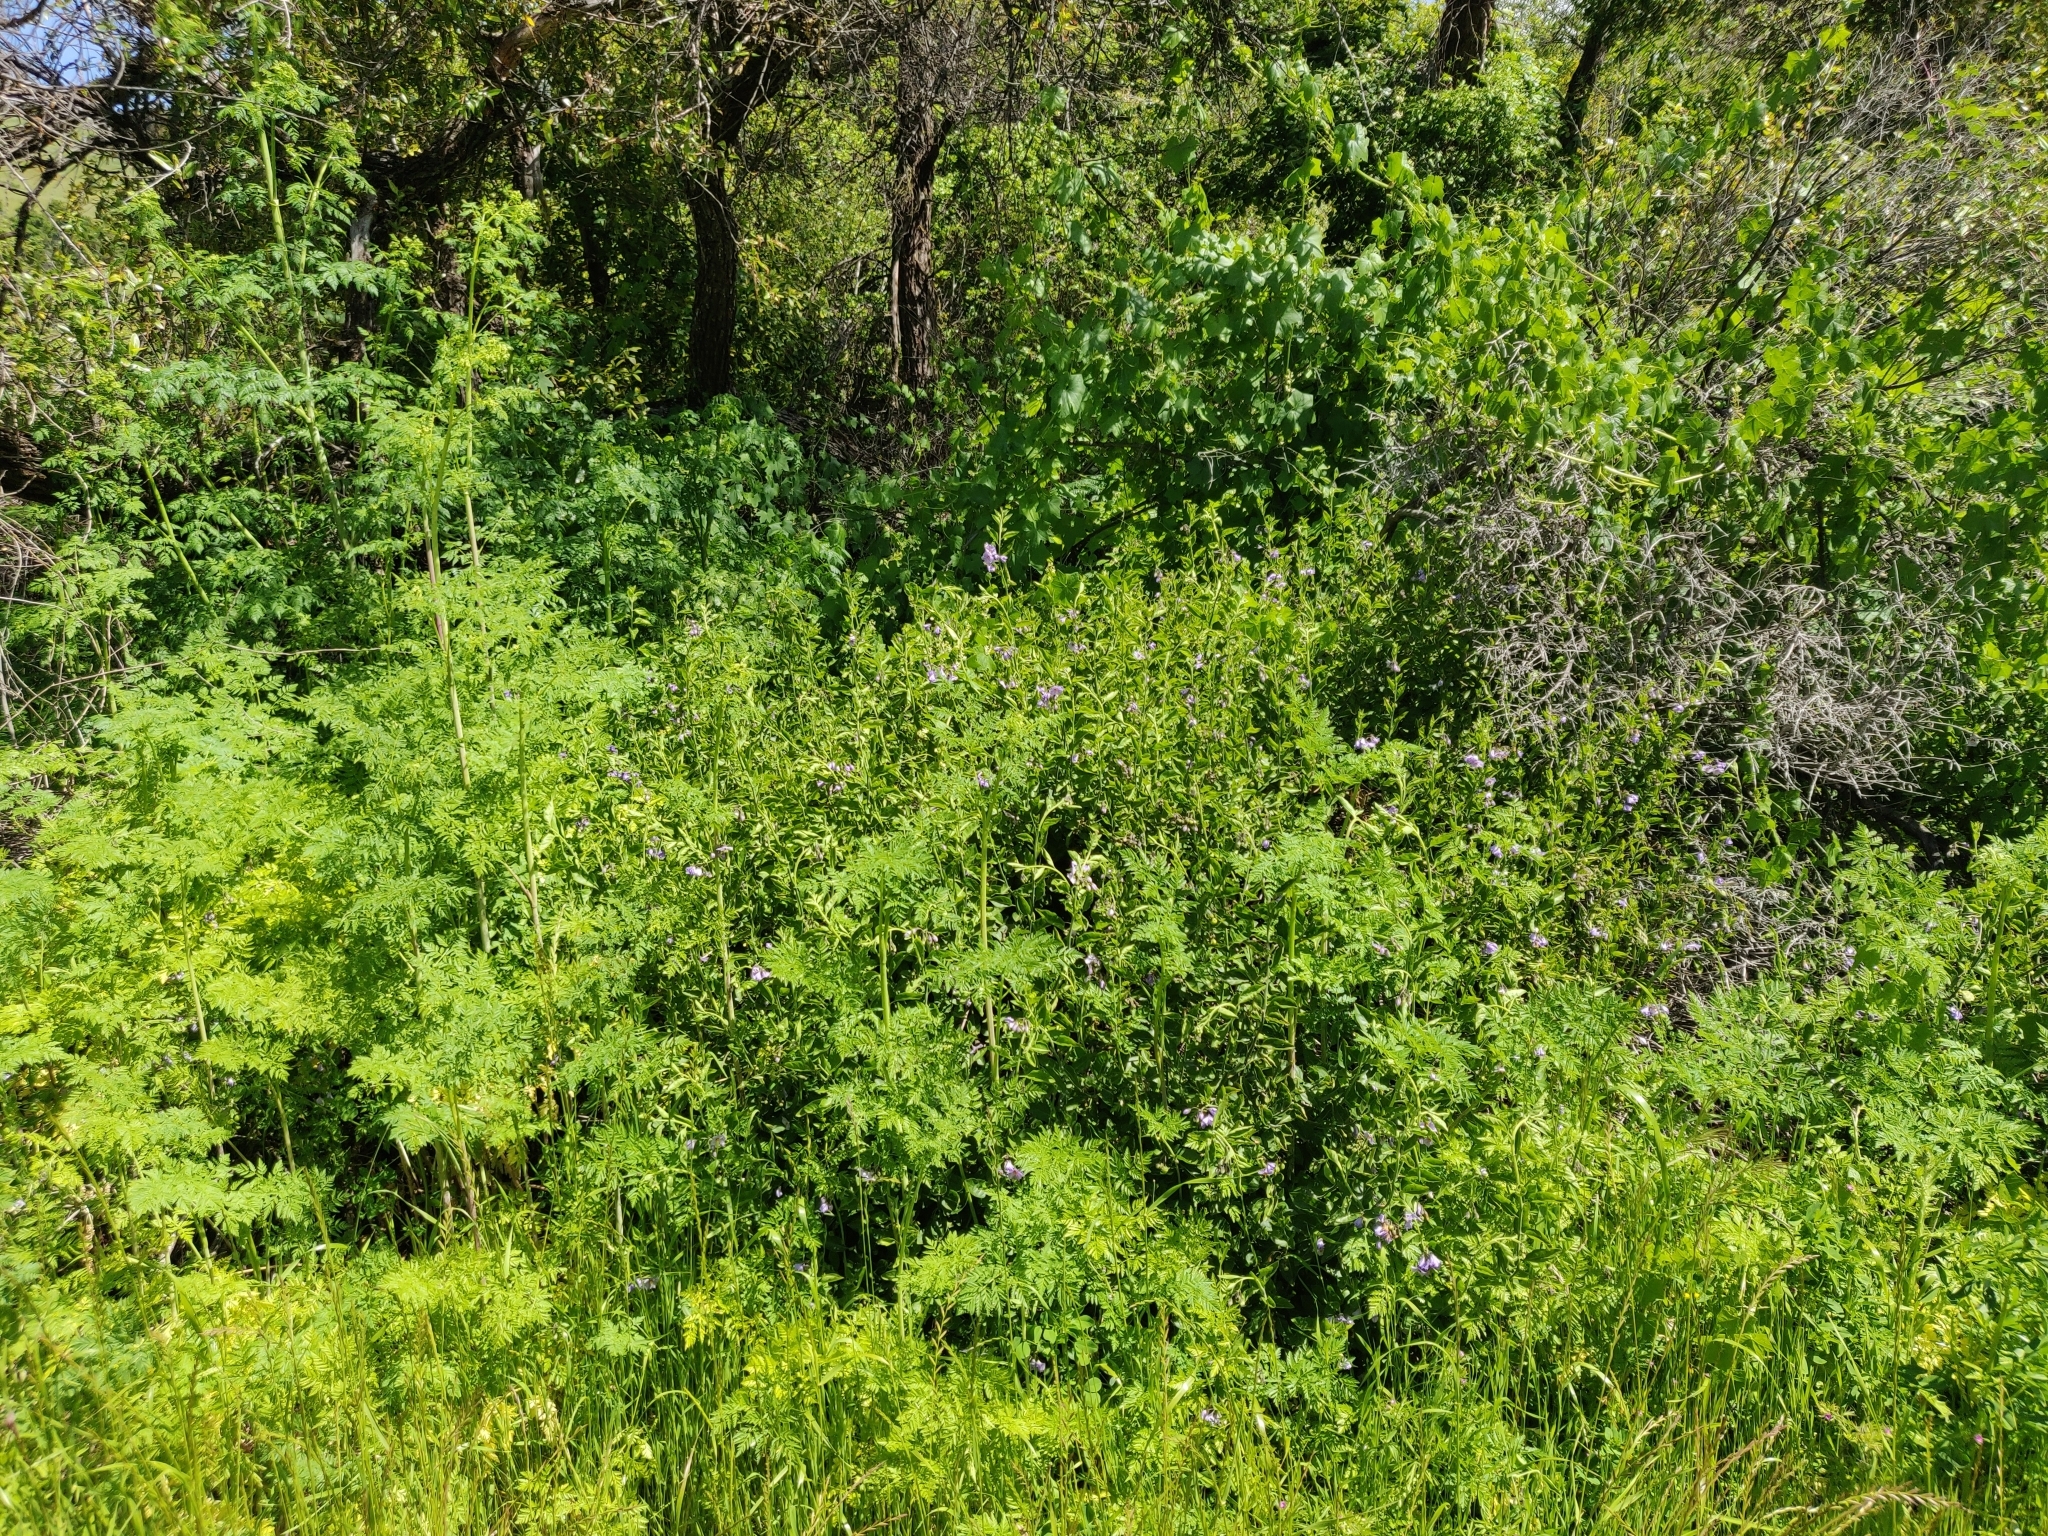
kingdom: Plantae
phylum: Tracheophyta
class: Magnoliopsida
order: Solanales
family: Solanaceae
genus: Solanum
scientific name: Solanum umbelliferum
